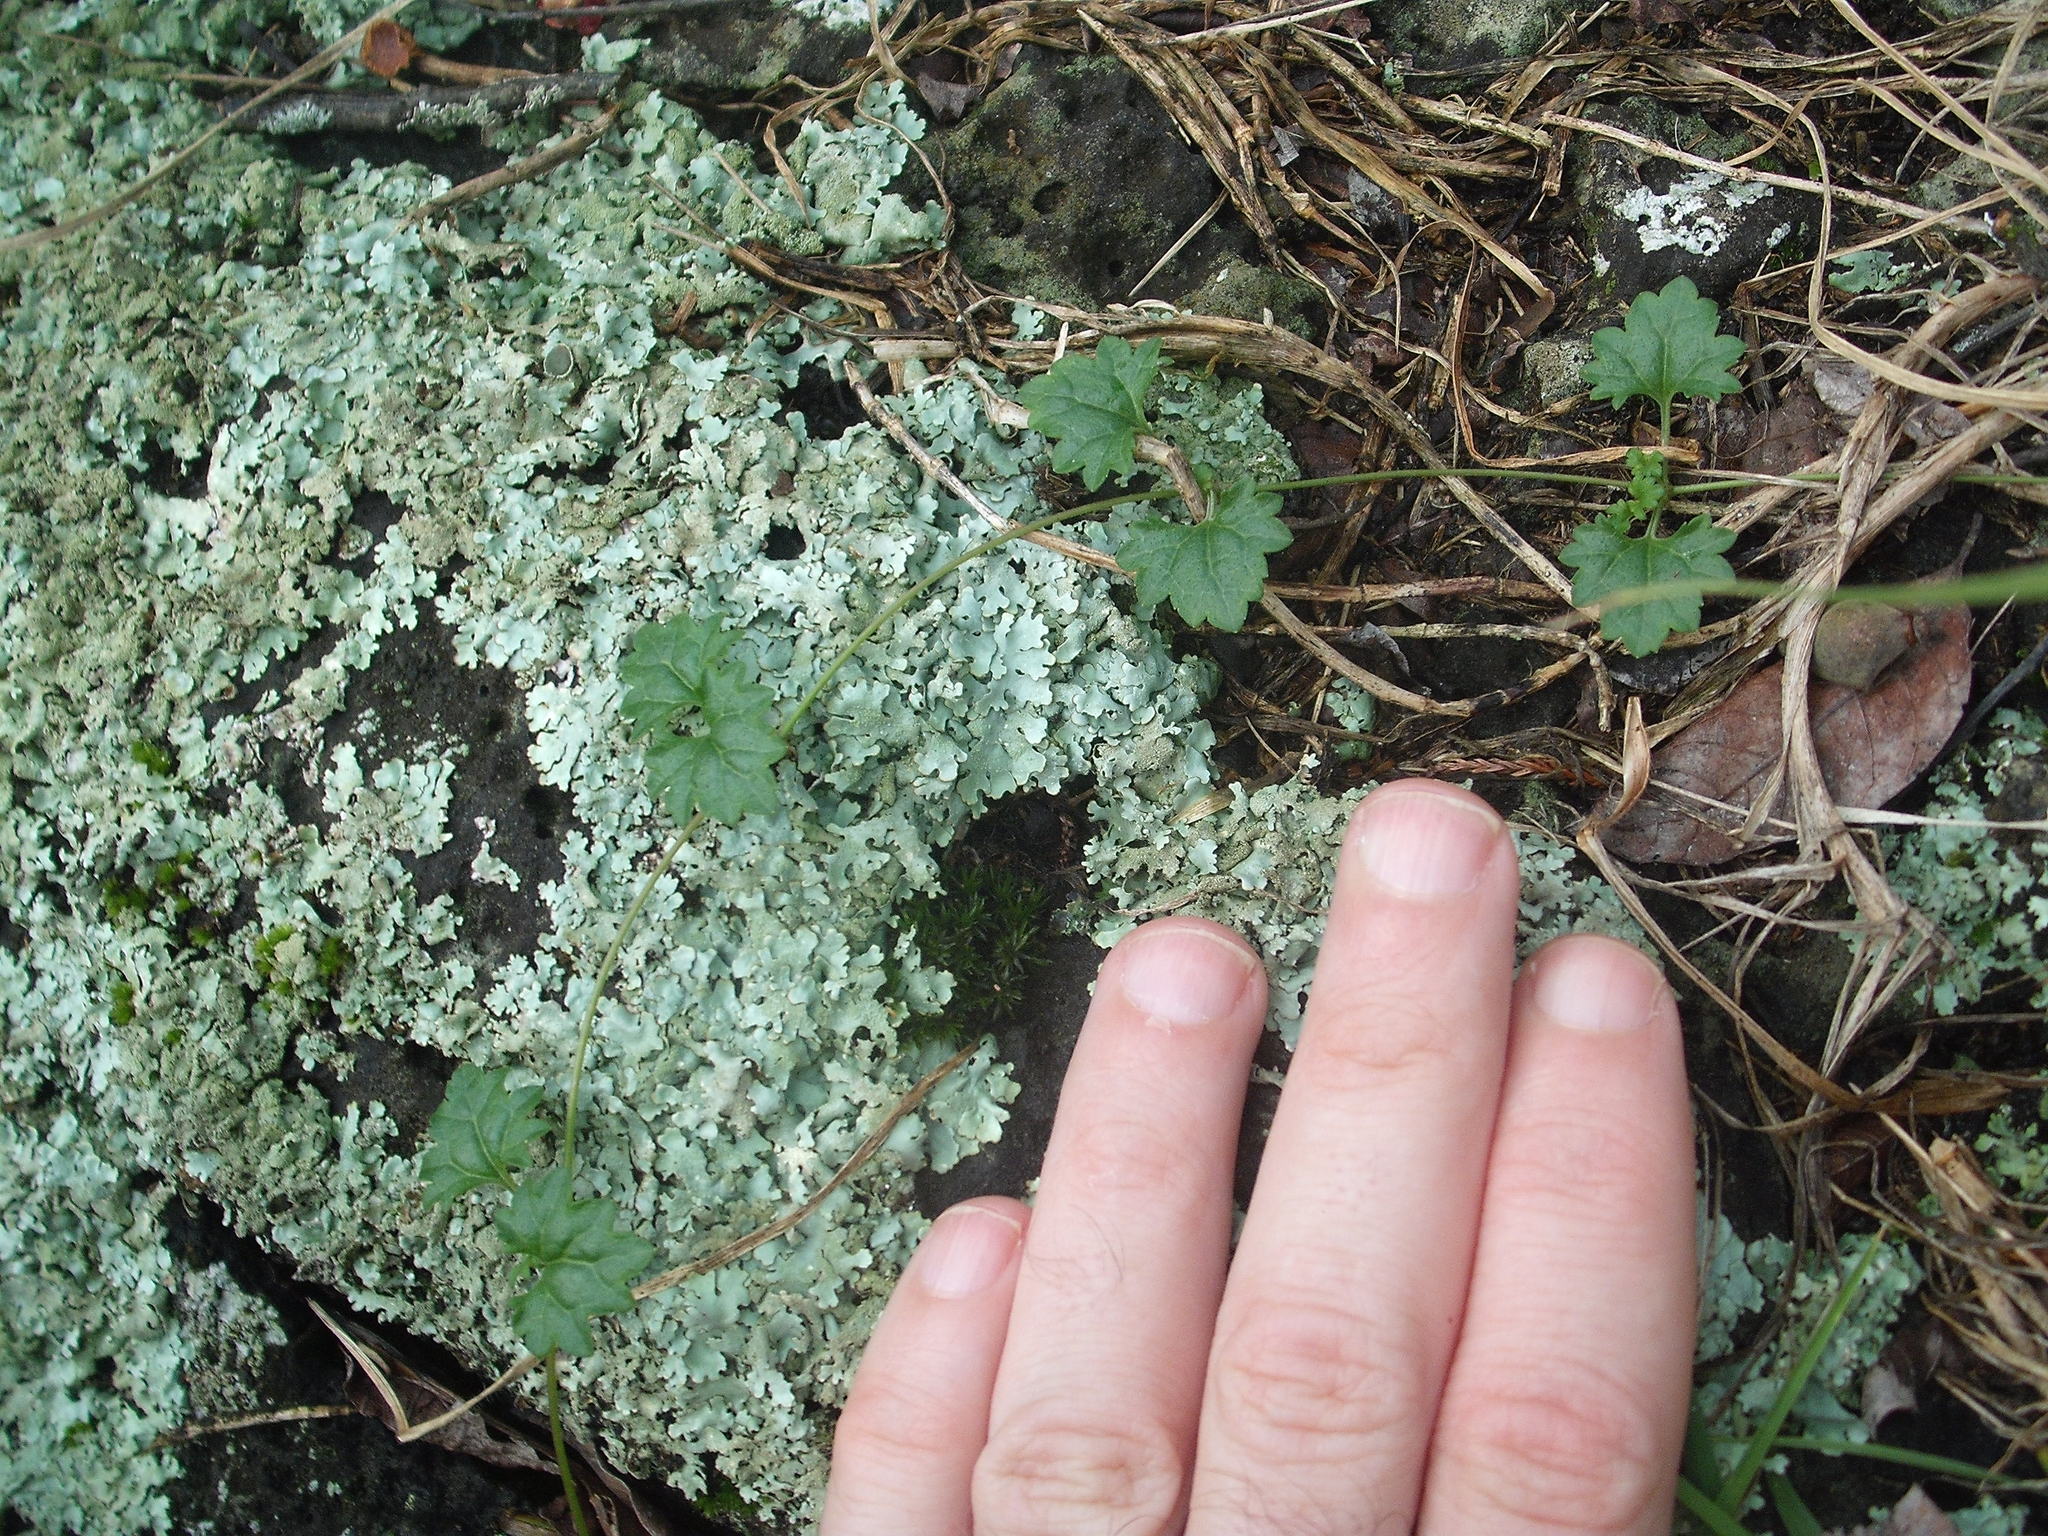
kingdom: Plantae
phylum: Tracheophyta
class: Magnoliopsida
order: Lamiales
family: Plantaginaceae
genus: Veronica
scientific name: Veronica plebeia
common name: Speedwell
